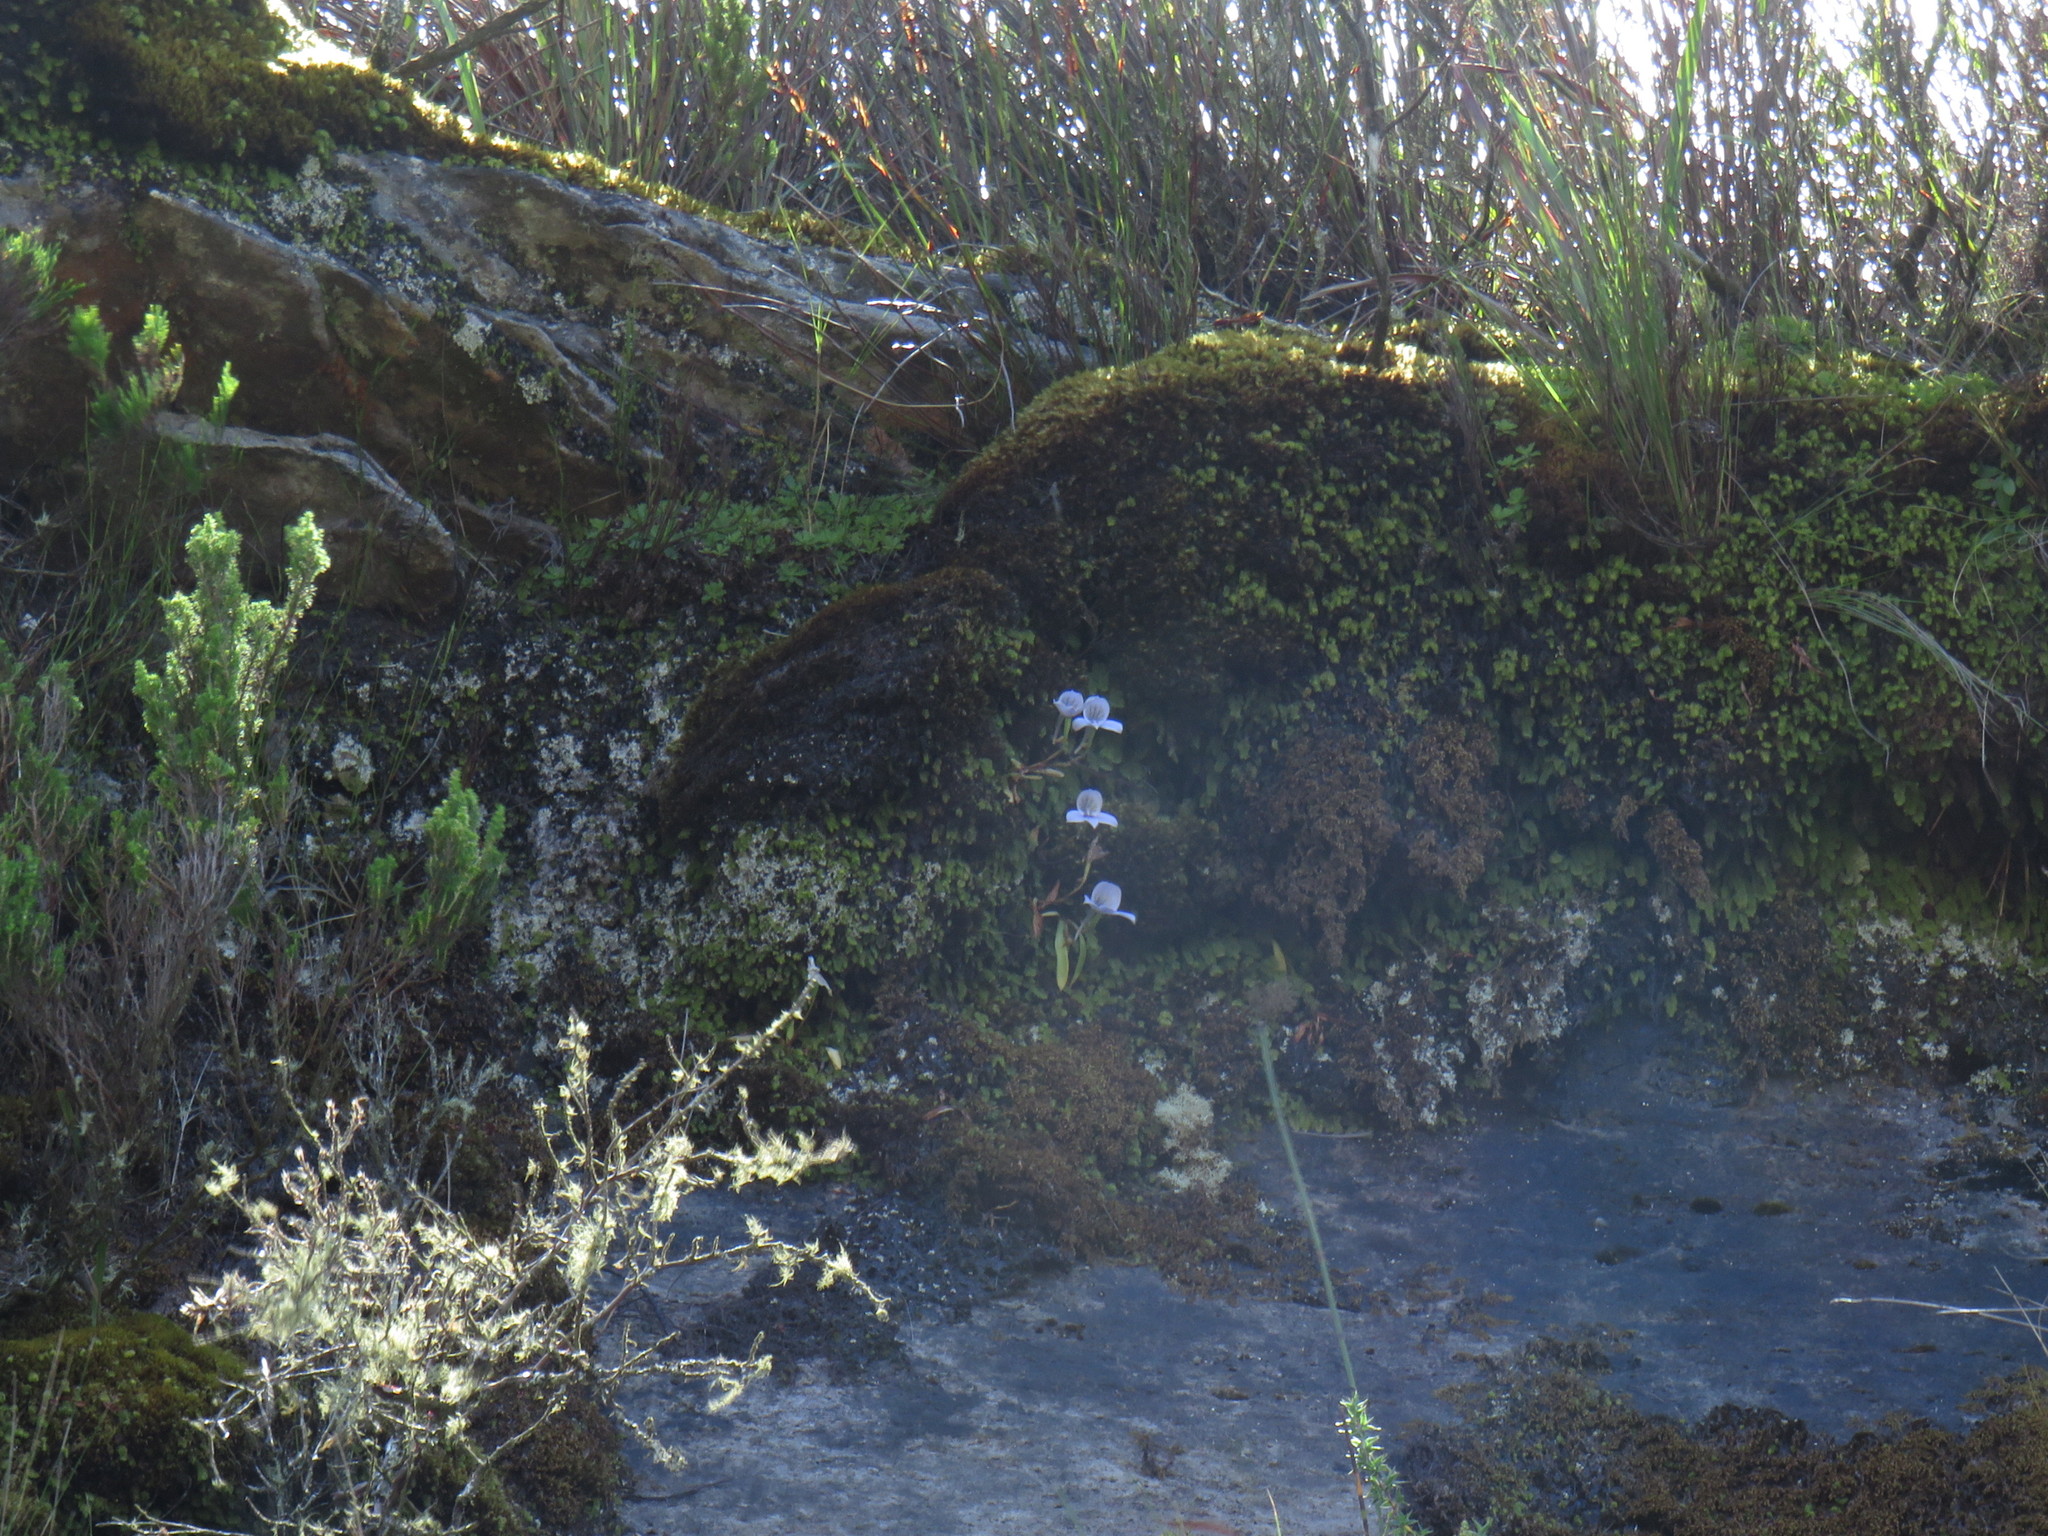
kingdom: Plantae
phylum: Tracheophyta
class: Liliopsida
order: Asparagales
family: Orchidaceae
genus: Disa
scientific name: Disa longicornu
